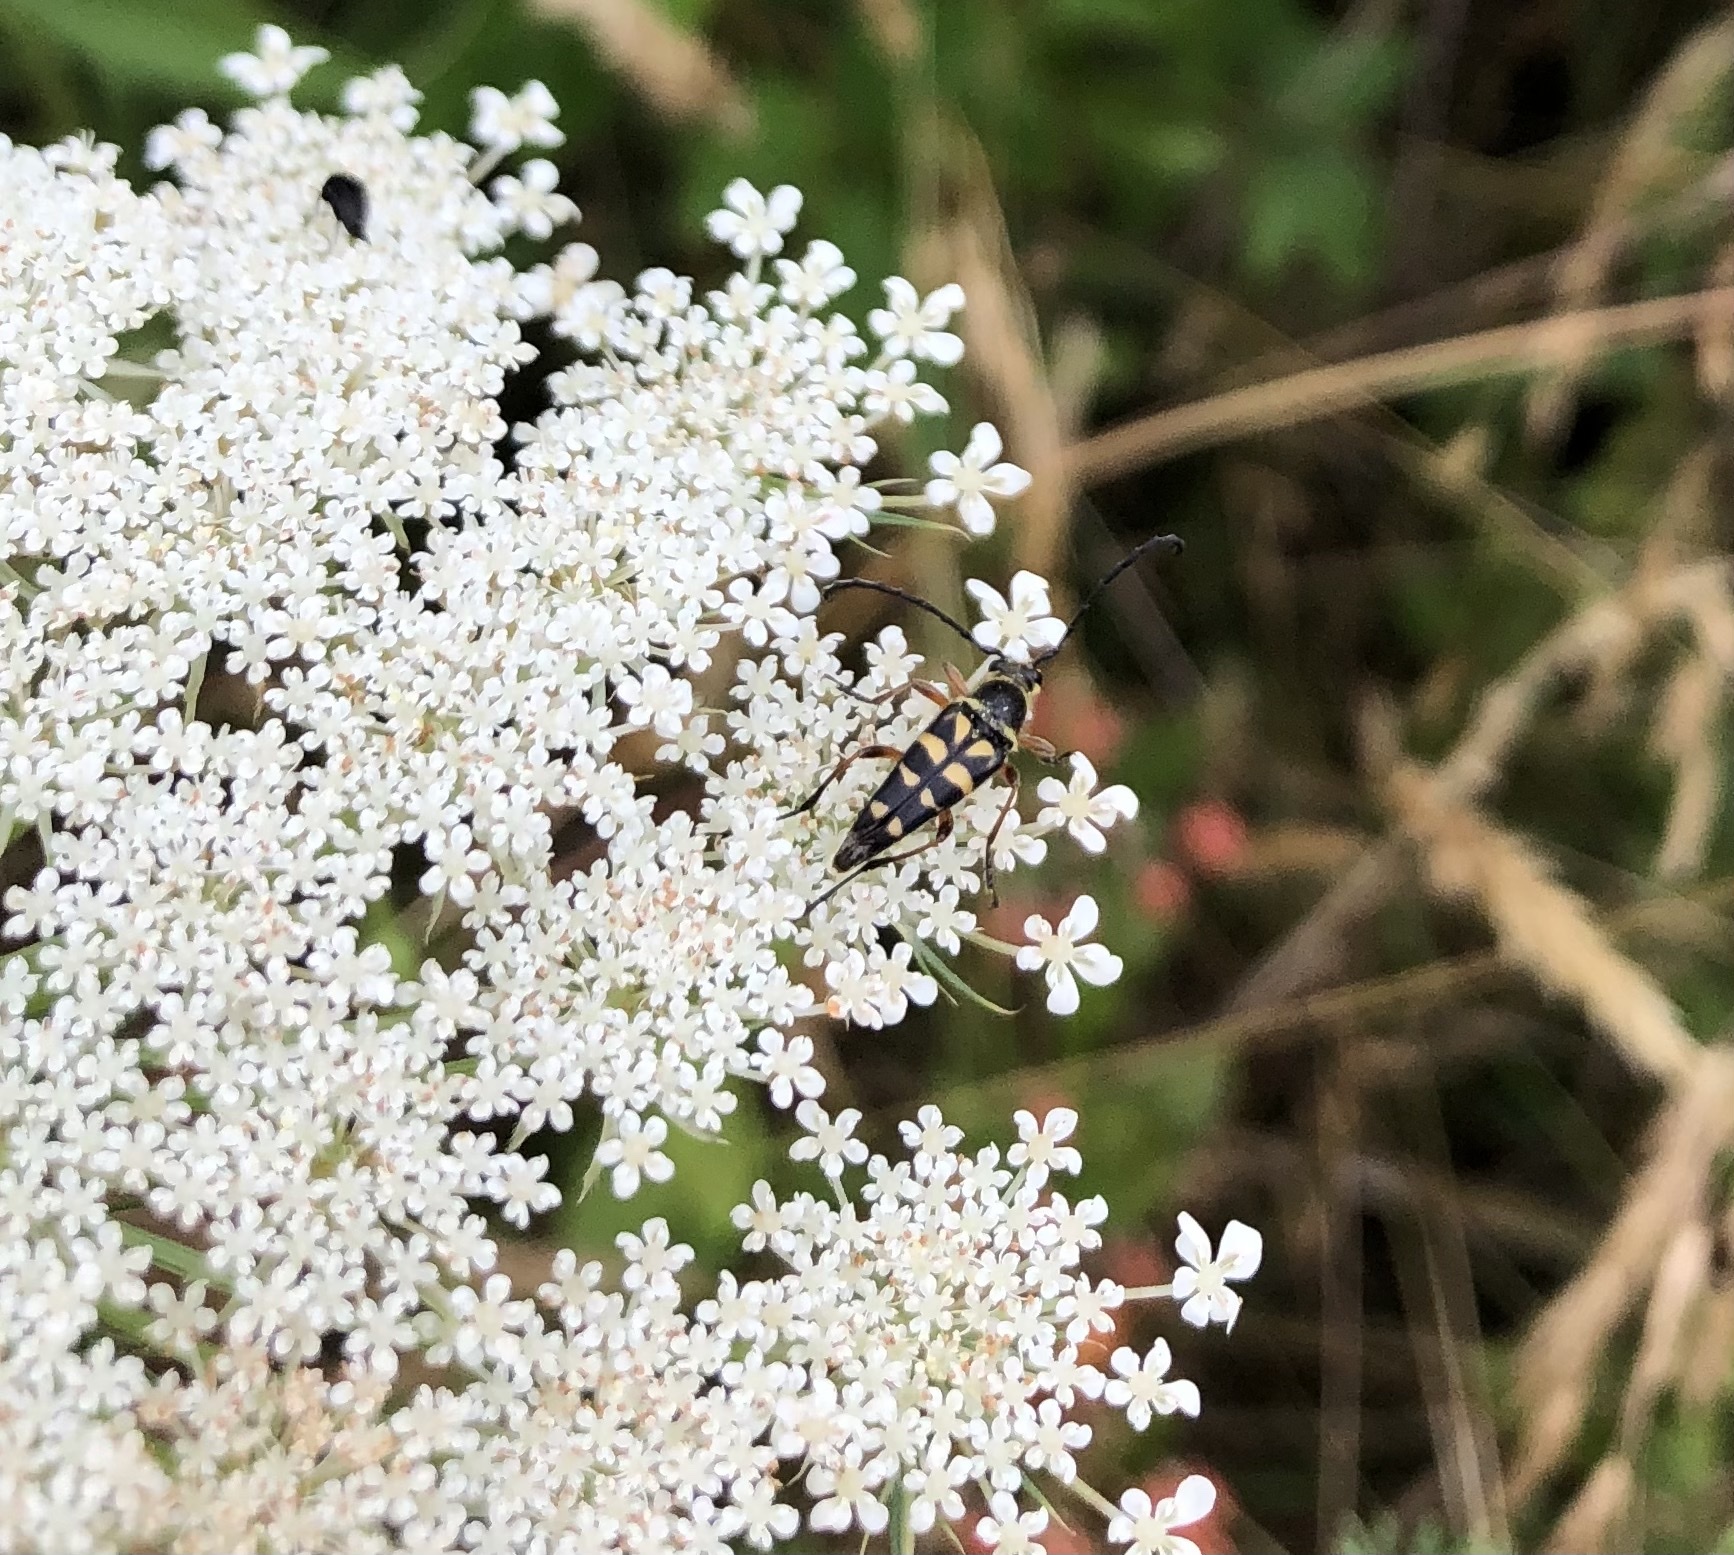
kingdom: Animalia
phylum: Arthropoda
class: Insecta
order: Coleoptera
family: Cerambycidae
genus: Typocerus
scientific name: Typocerus zebra
